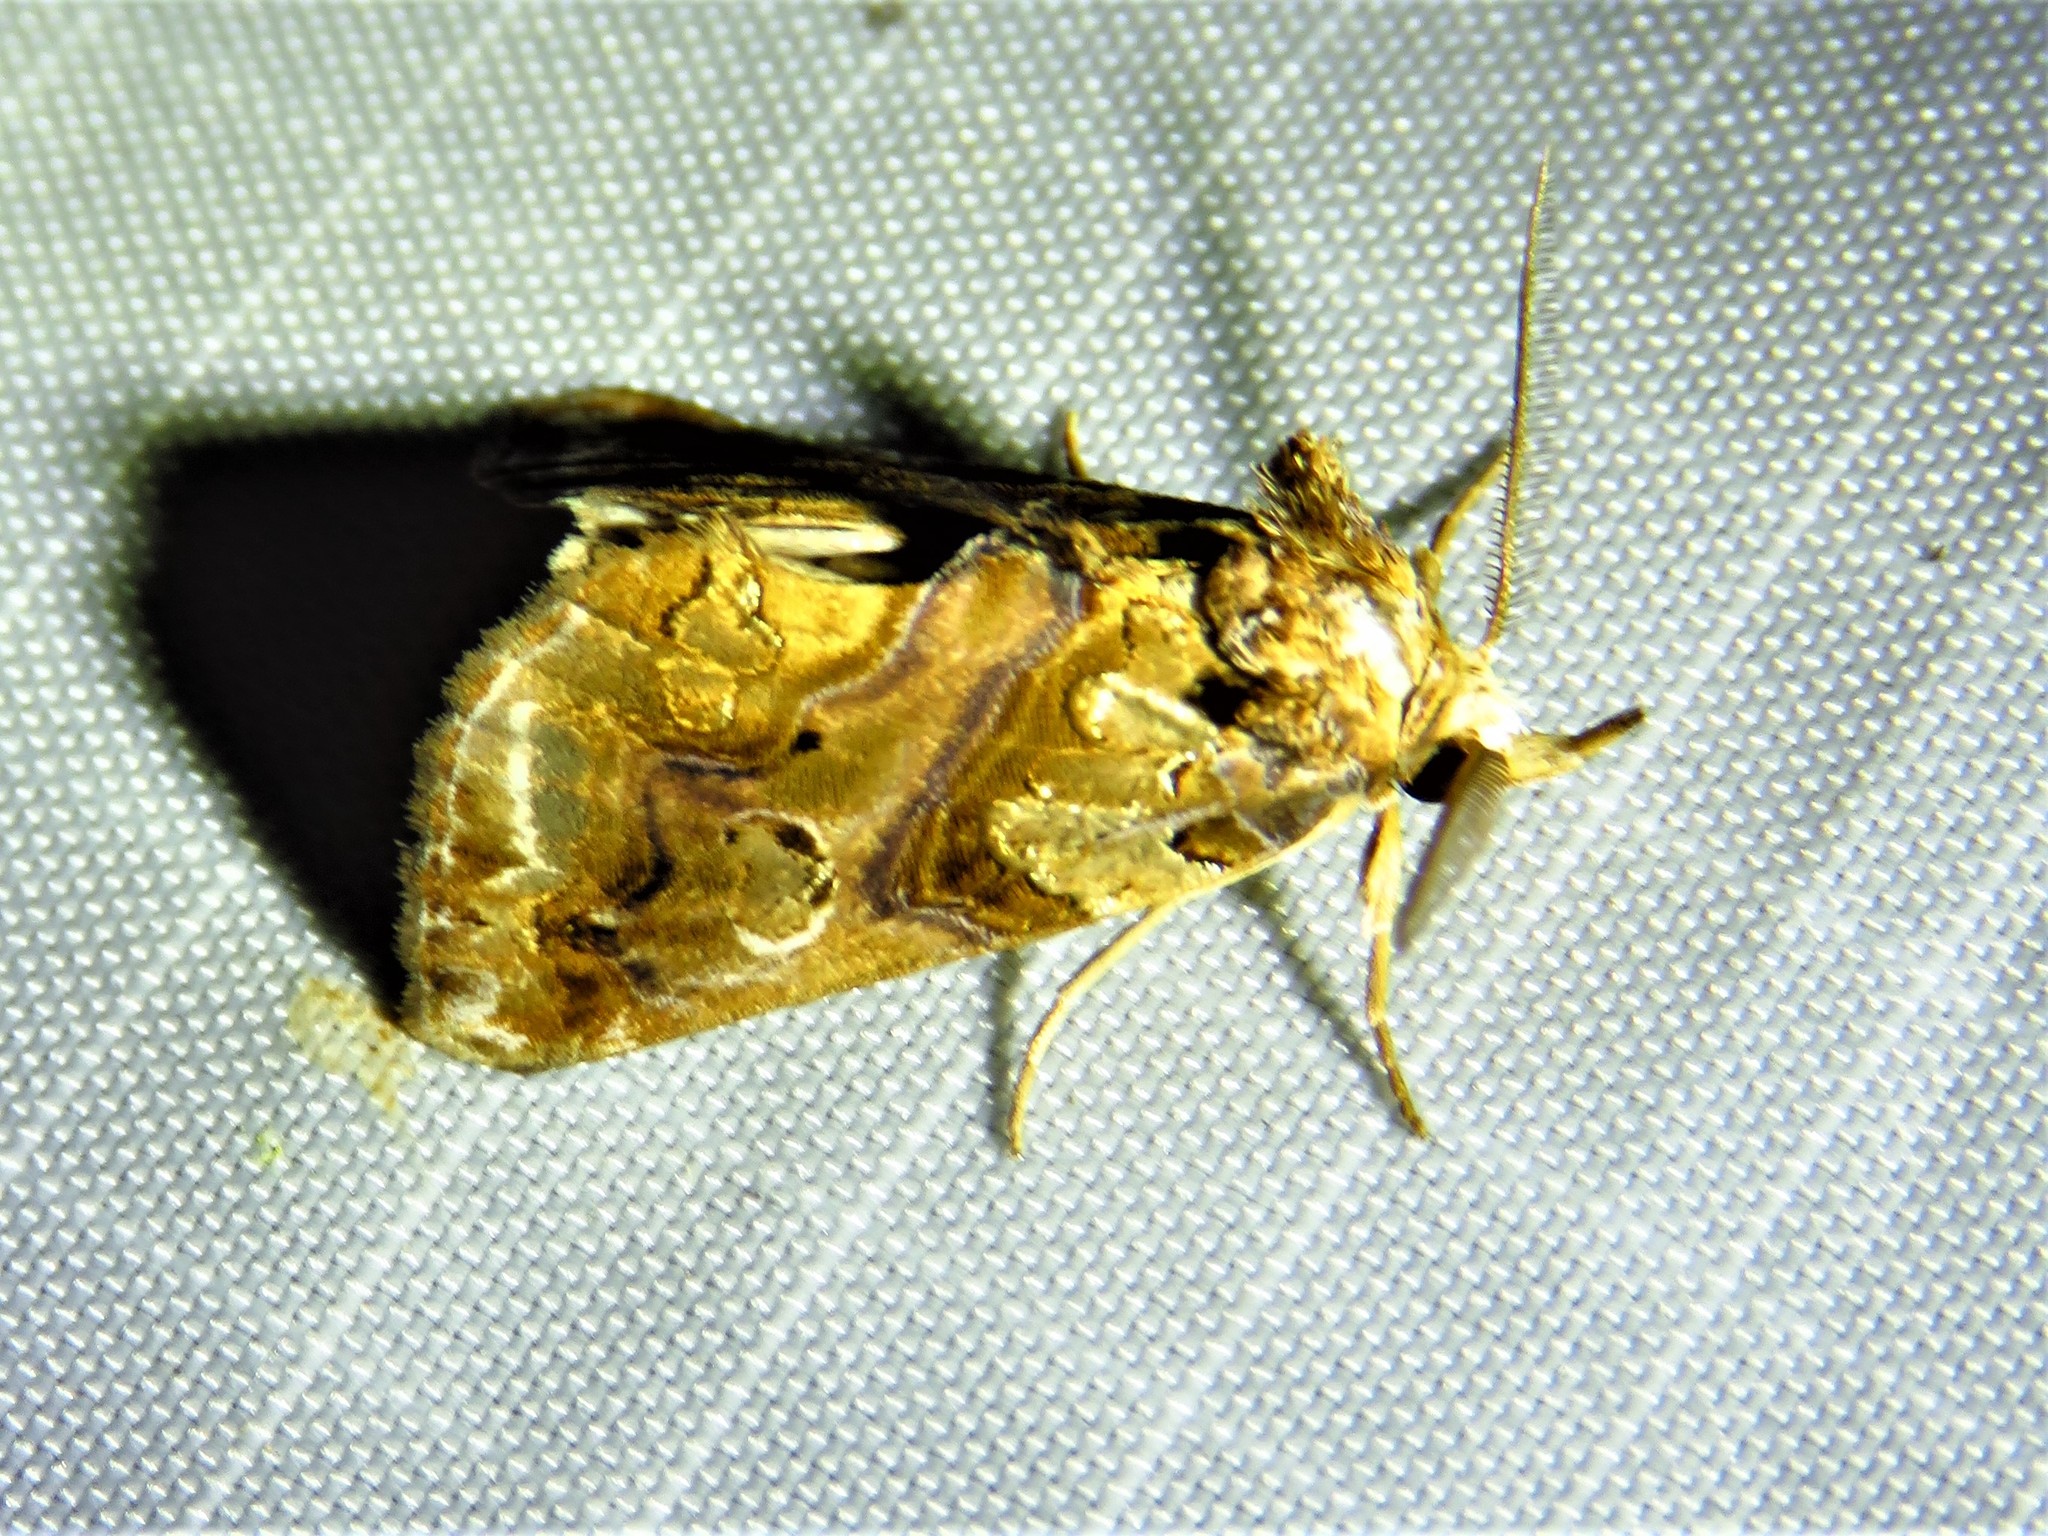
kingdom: Animalia
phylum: Arthropoda
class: Insecta
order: Lepidoptera
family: Erebidae
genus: Plusiodonta
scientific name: Plusiodonta compressipalpis
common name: Moonseed moth
